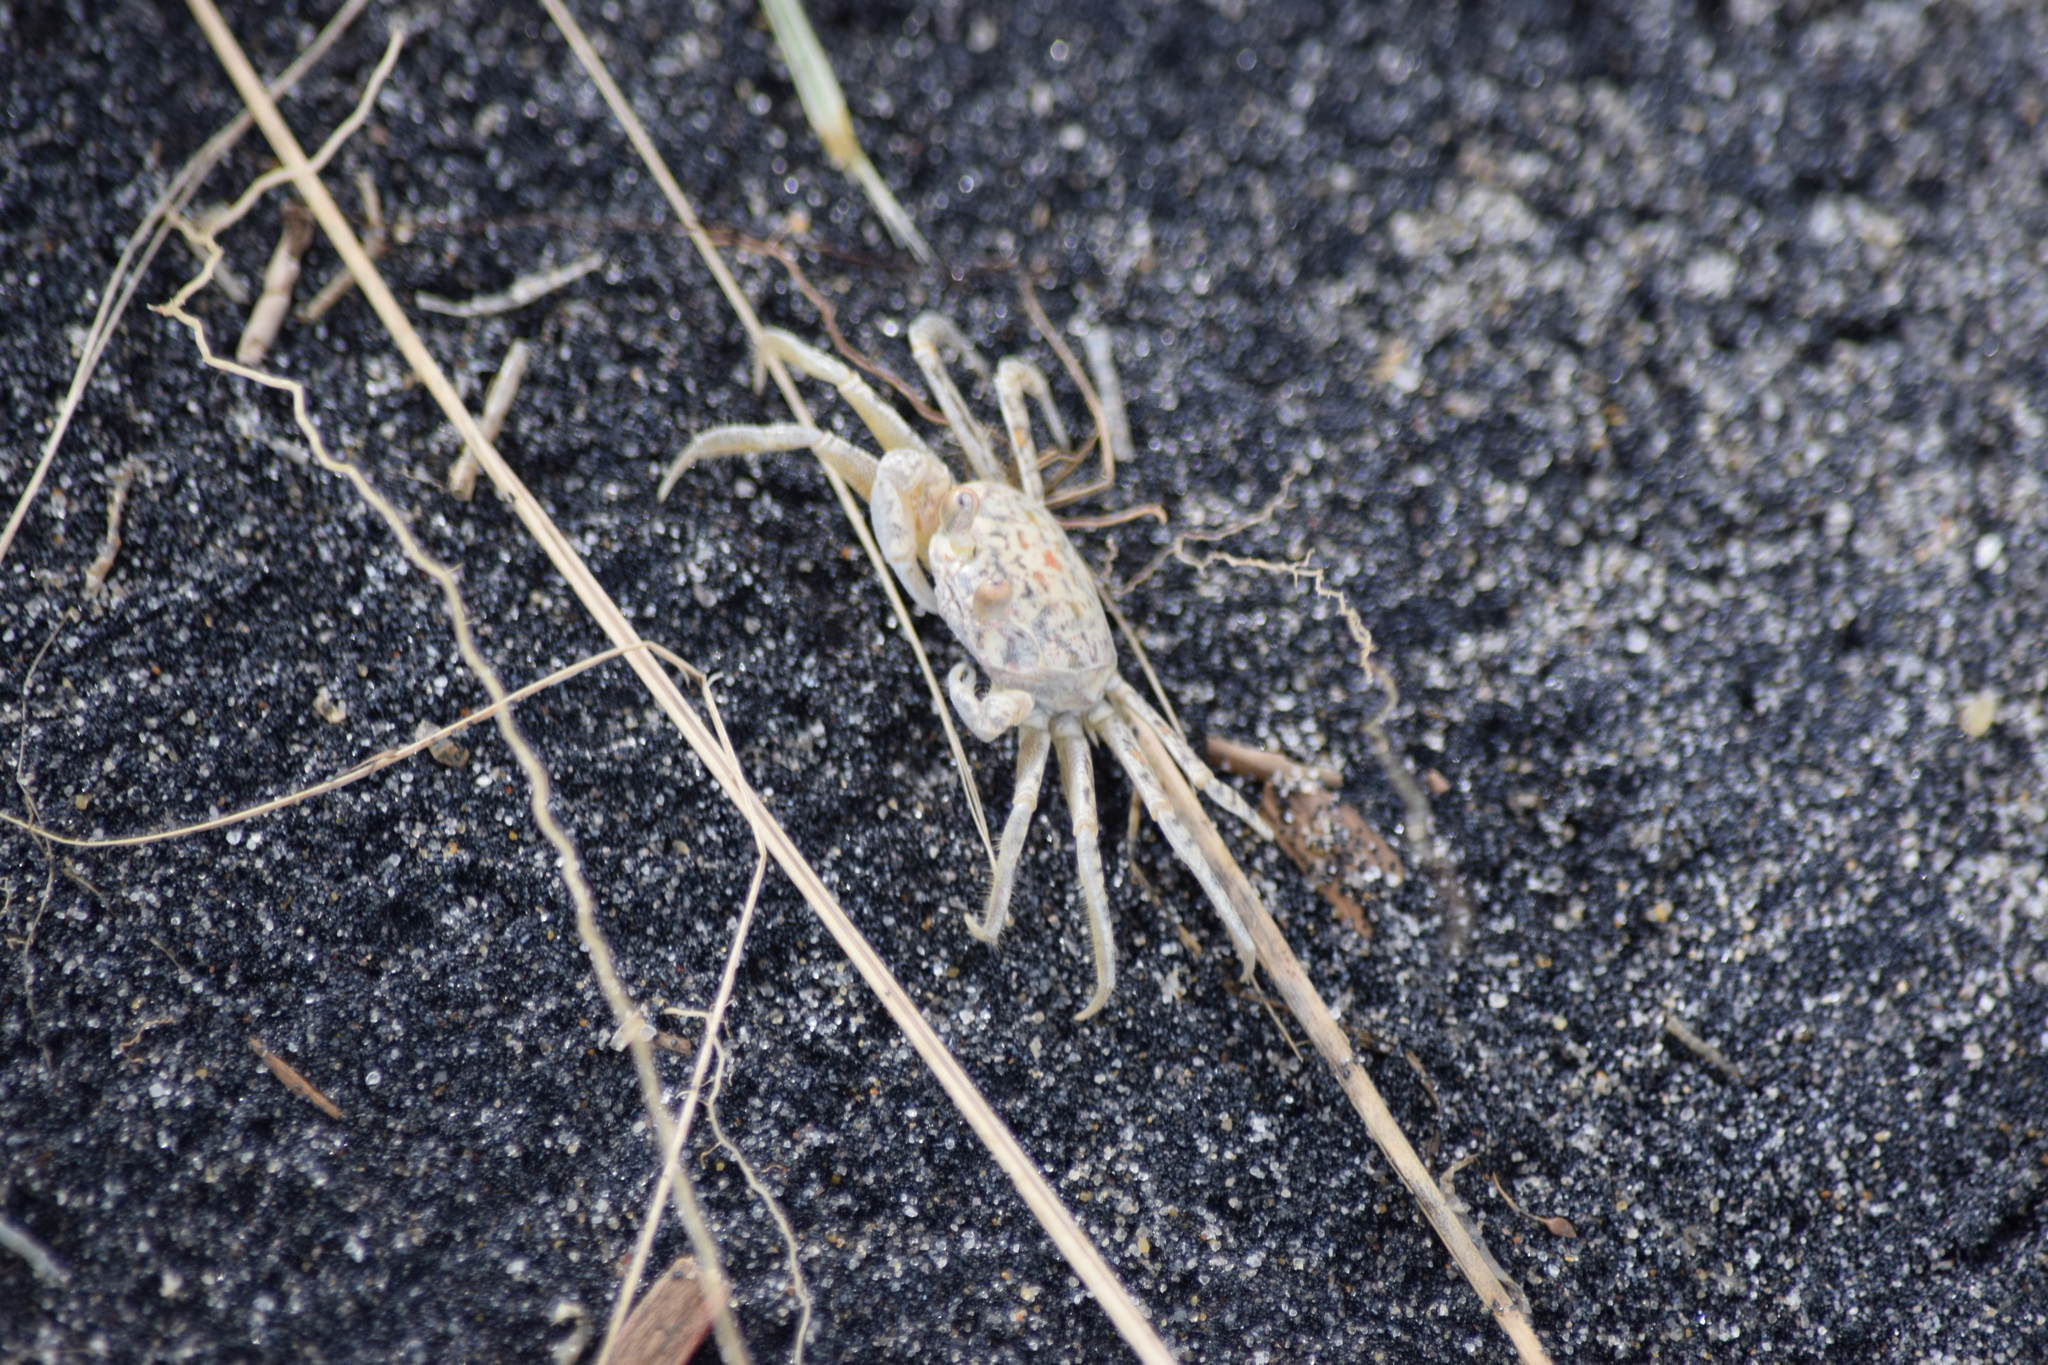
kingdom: Animalia
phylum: Arthropoda
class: Malacostraca
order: Decapoda
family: Ocypodidae
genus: Ocypode
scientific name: Ocypode quadrata
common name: Ghost crab
